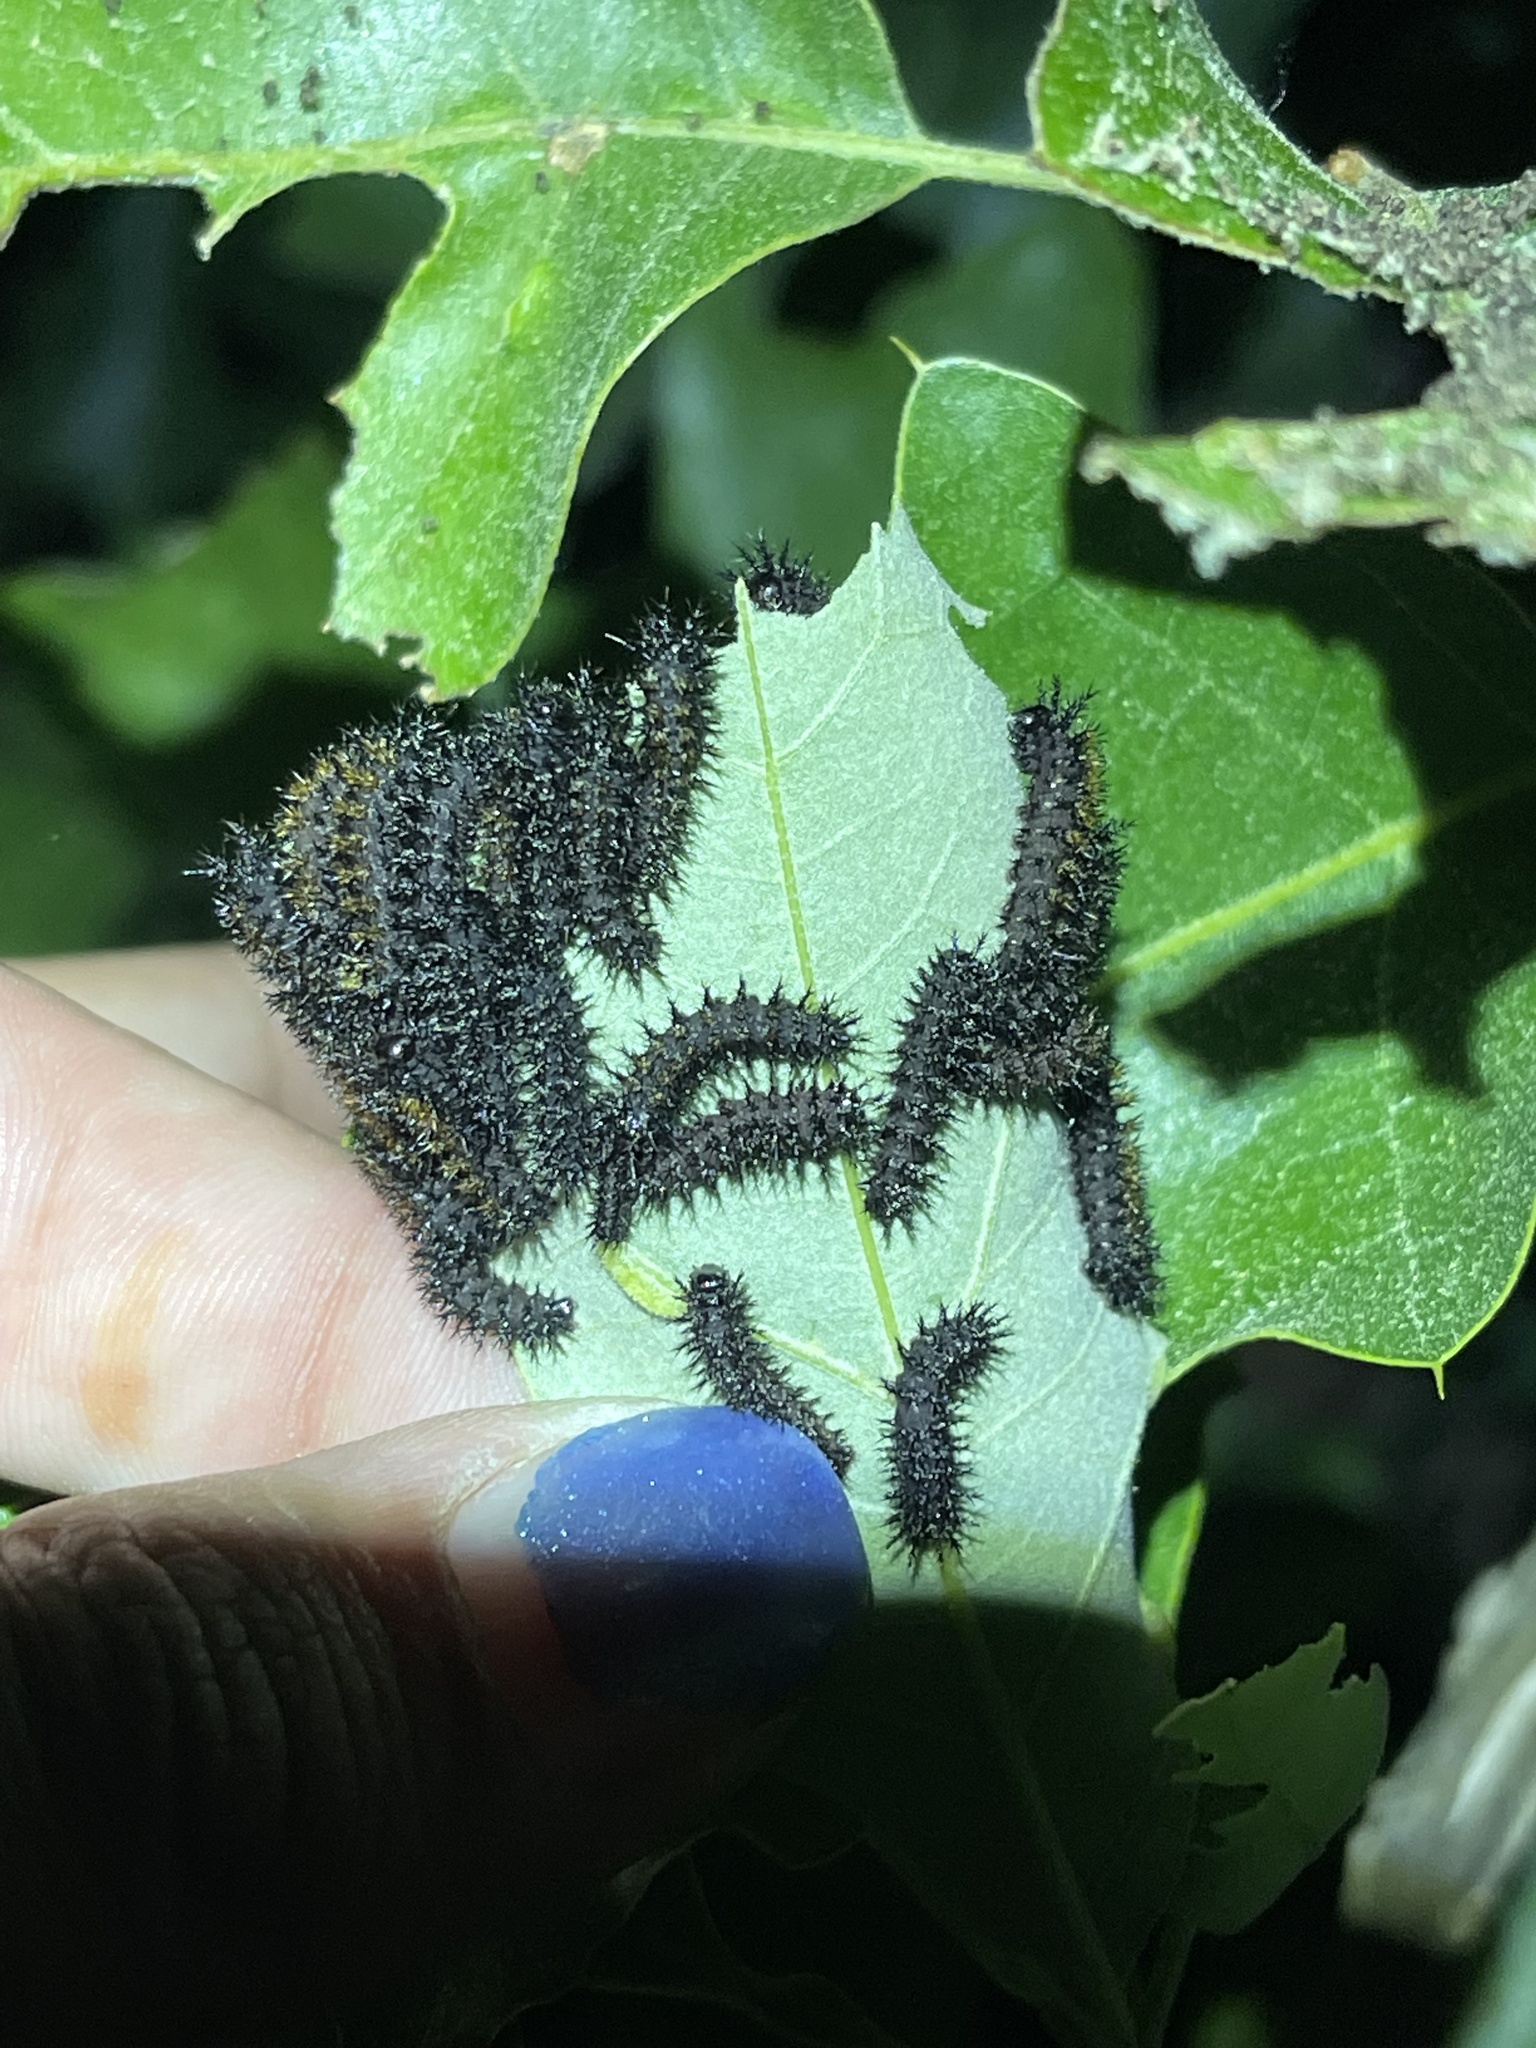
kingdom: Animalia
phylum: Arthropoda
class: Insecta
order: Lepidoptera
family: Saturniidae
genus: Hemileuca
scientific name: Hemileuca maia
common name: Eastern buckmoth
